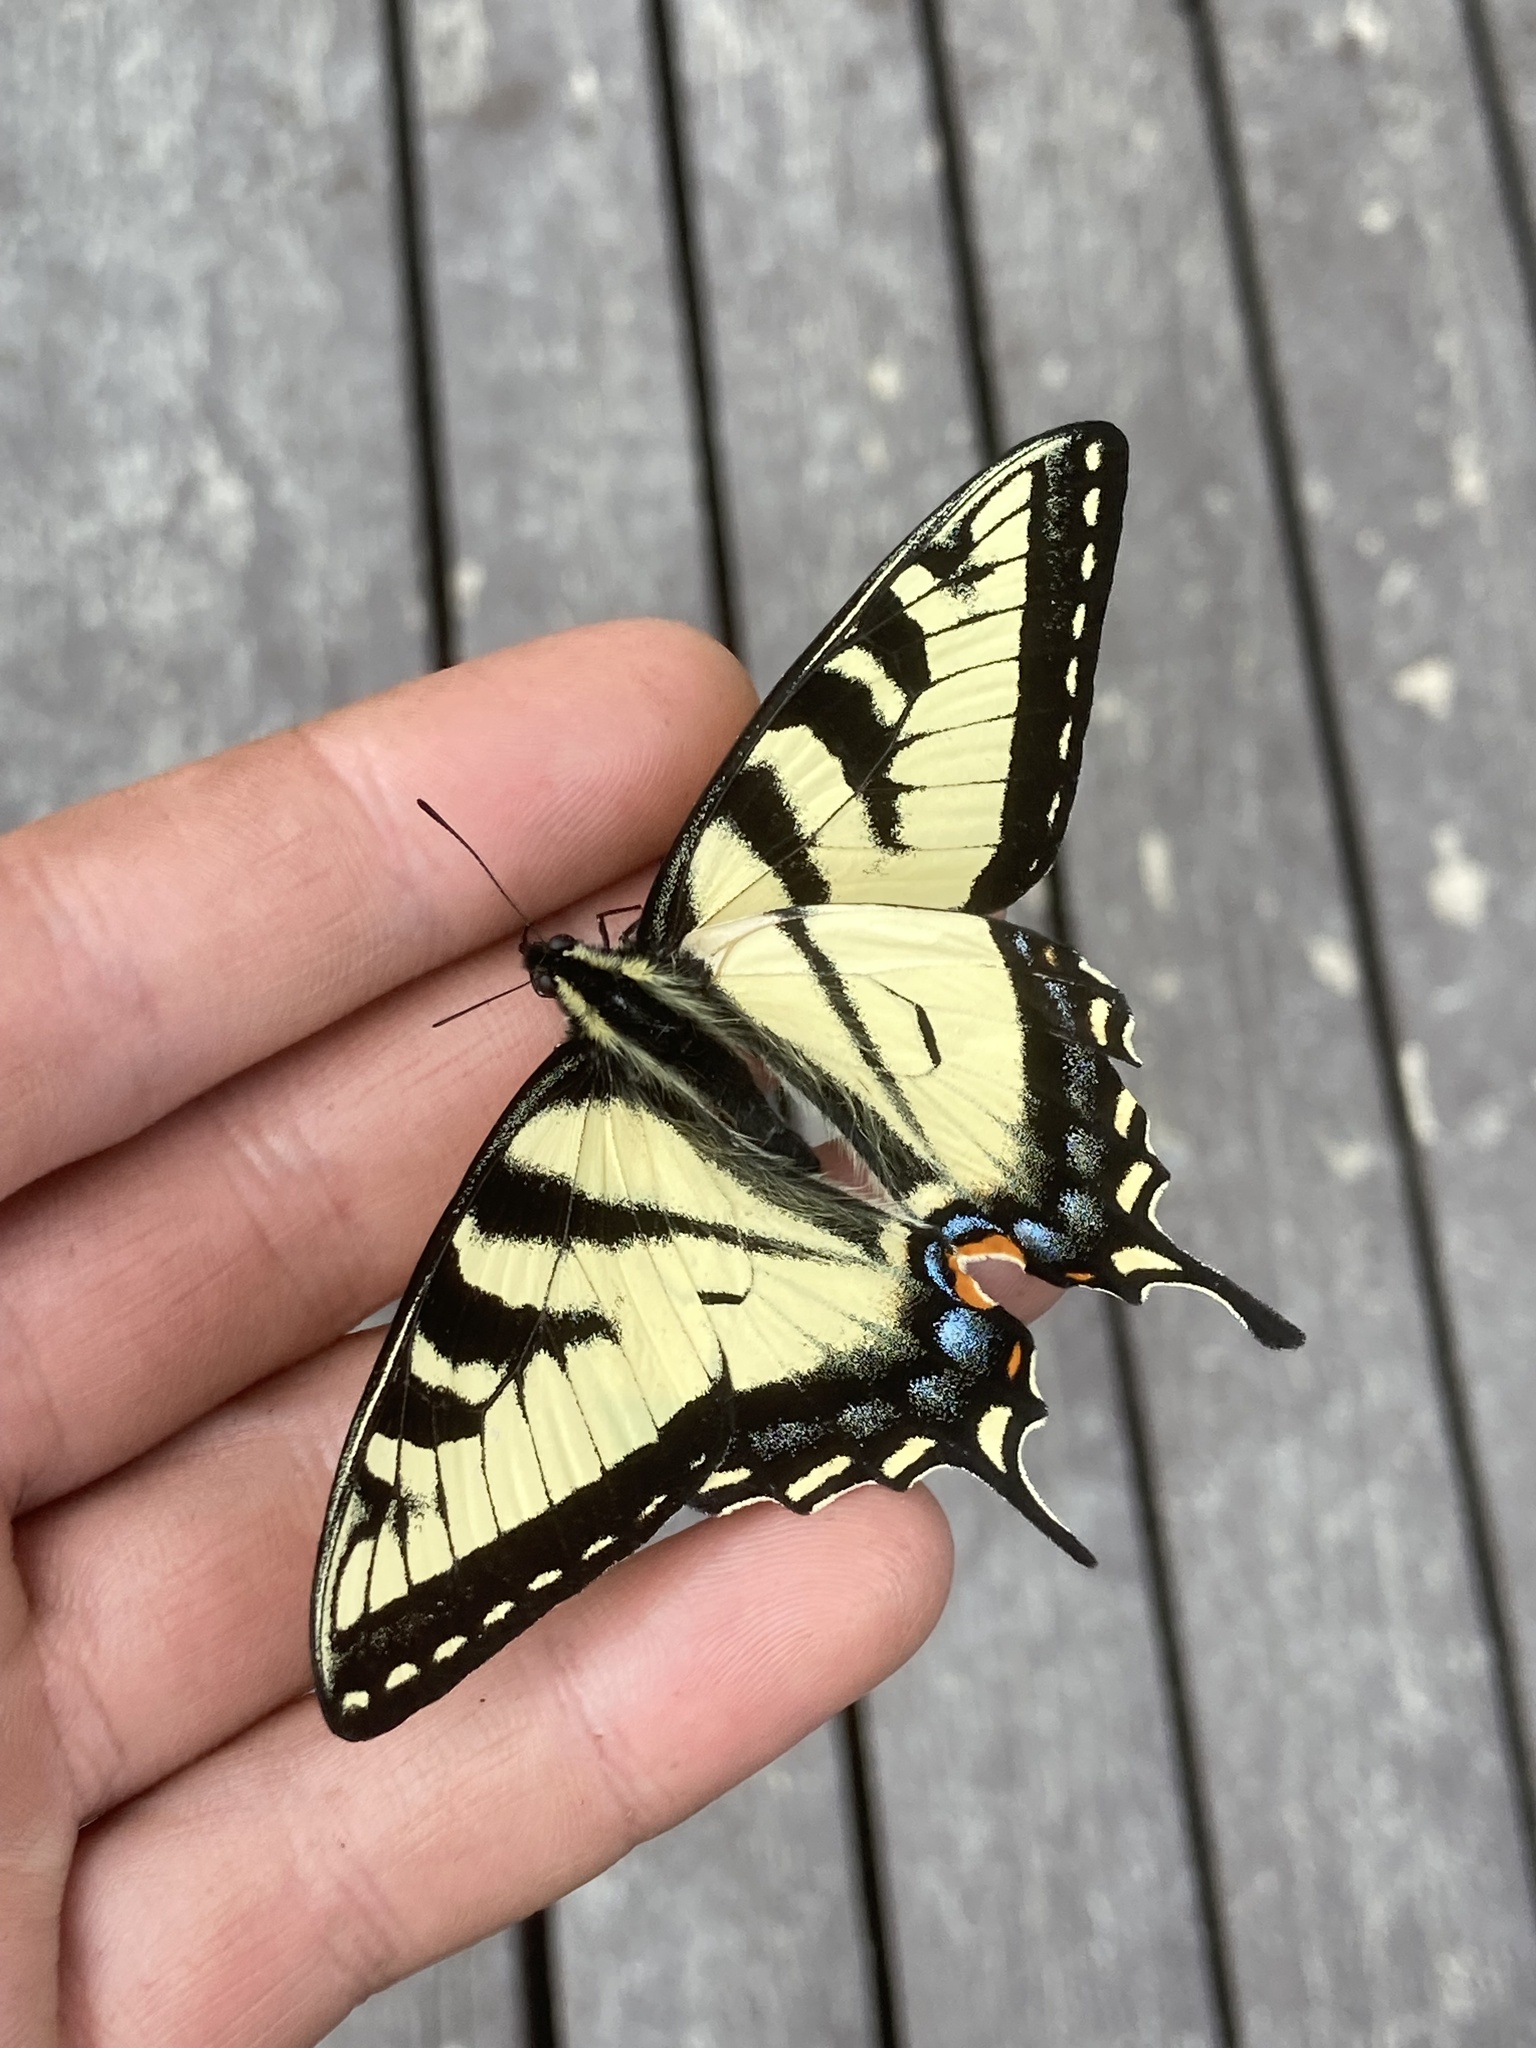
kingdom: Animalia
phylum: Arthropoda
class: Insecta
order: Lepidoptera
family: Papilionidae
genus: Papilio
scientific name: Papilio canadensis
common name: Canadian tiger swallowtail
